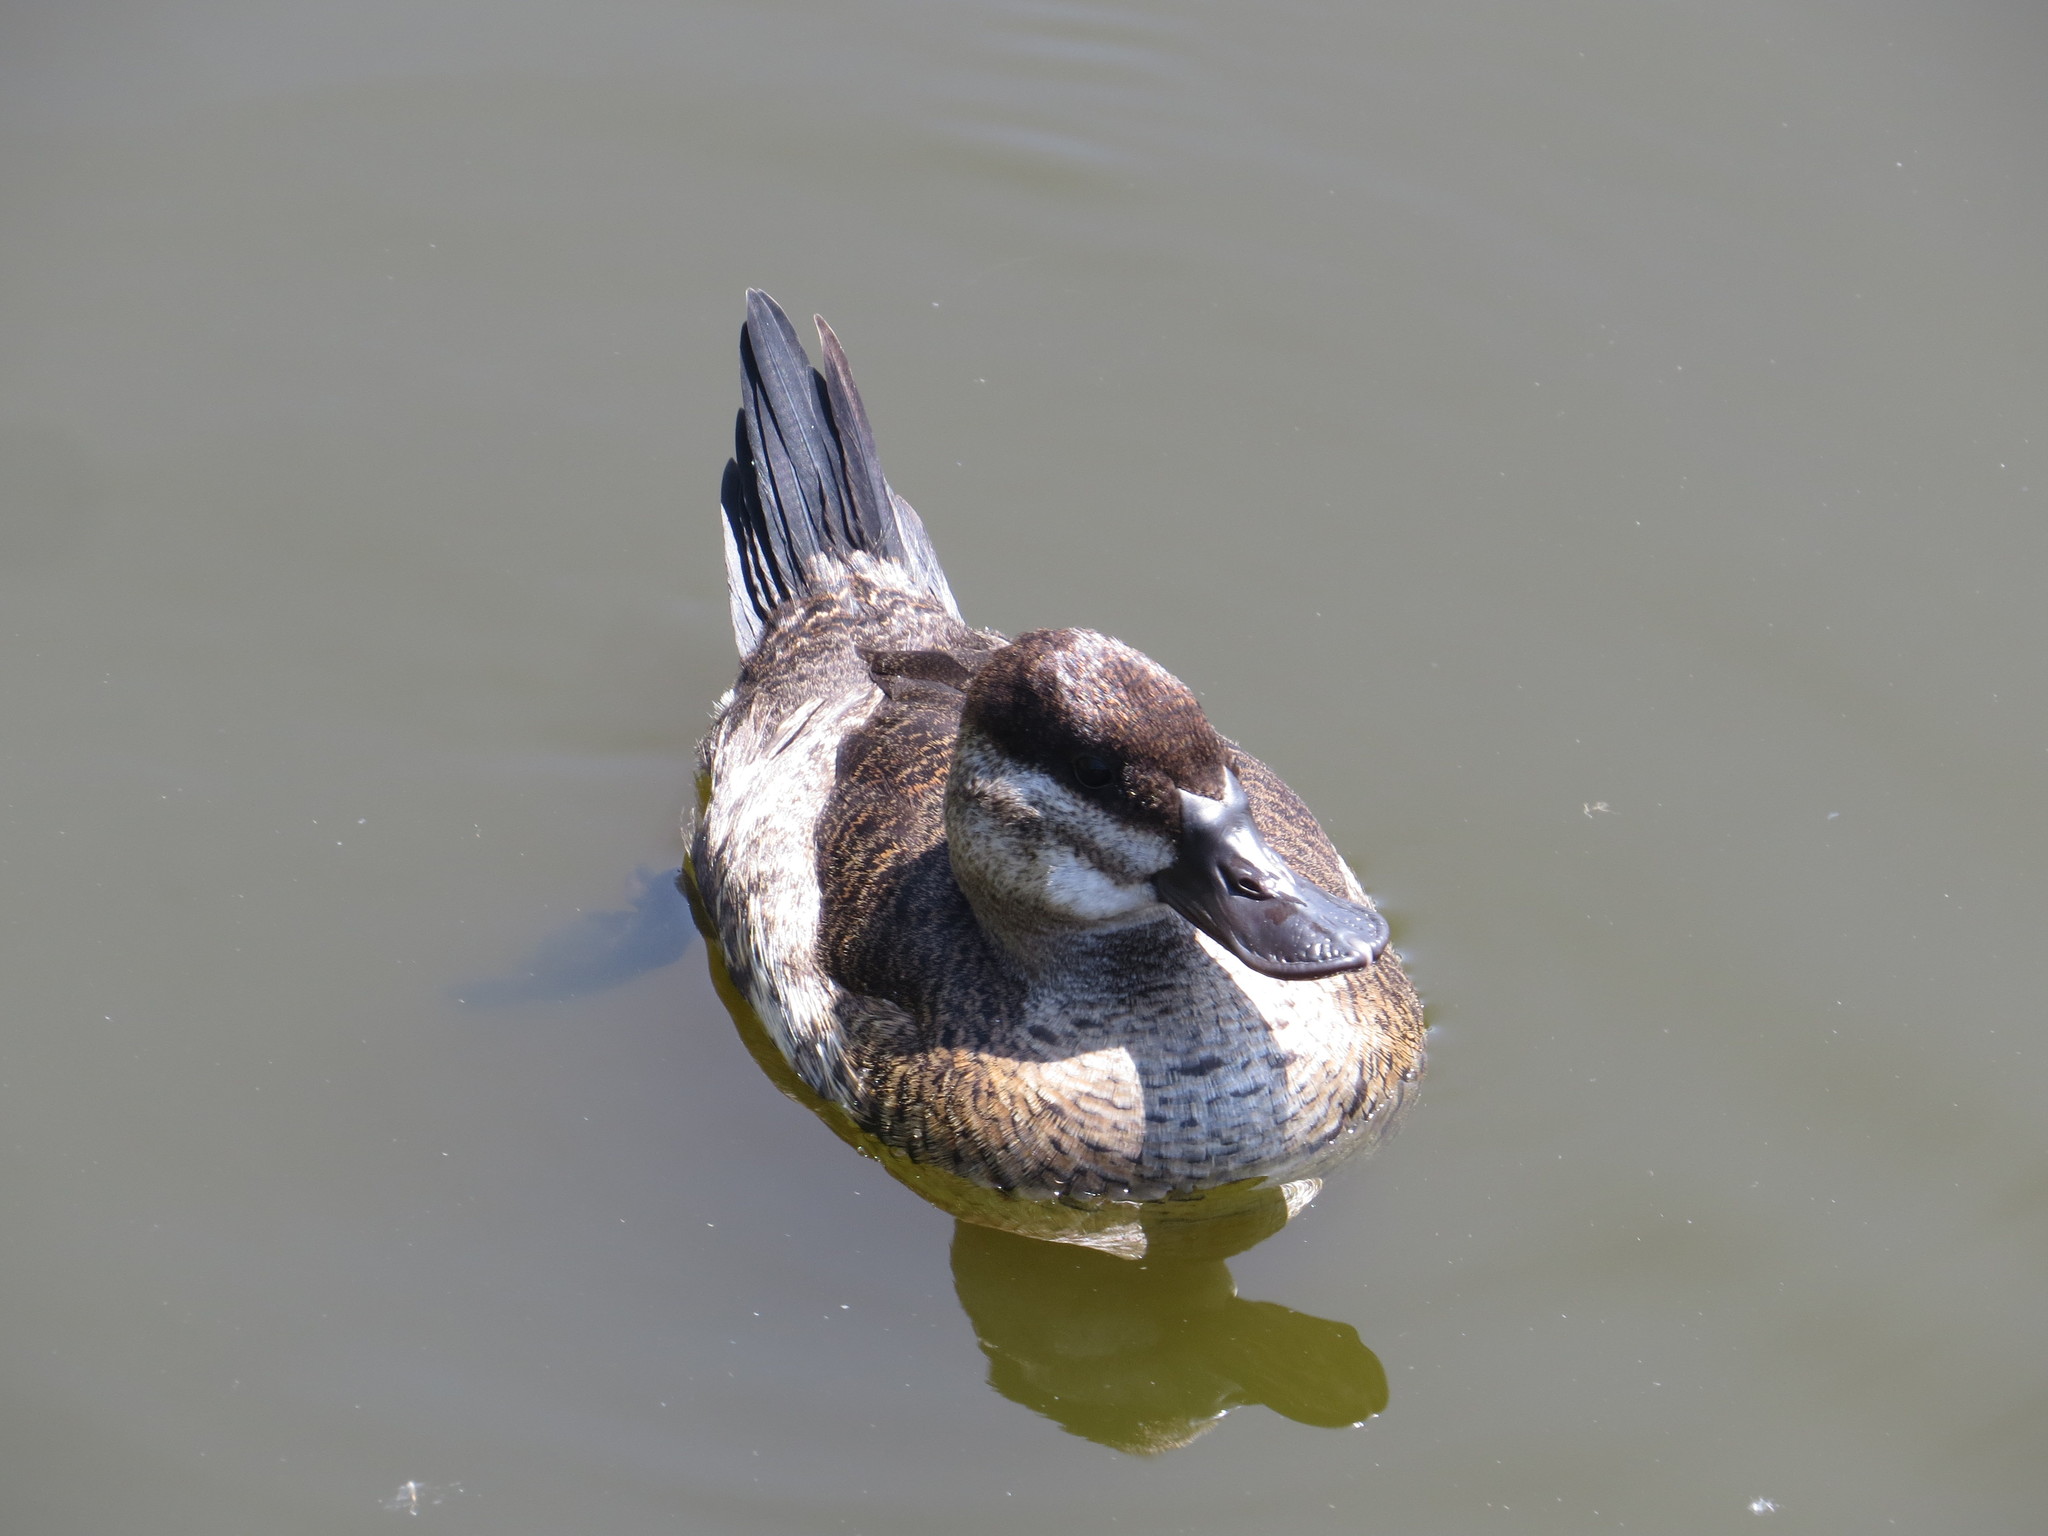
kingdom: Animalia
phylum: Chordata
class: Aves
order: Anseriformes
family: Anatidae
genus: Oxyura
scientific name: Oxyura jamaicensis
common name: Ruddy duck
